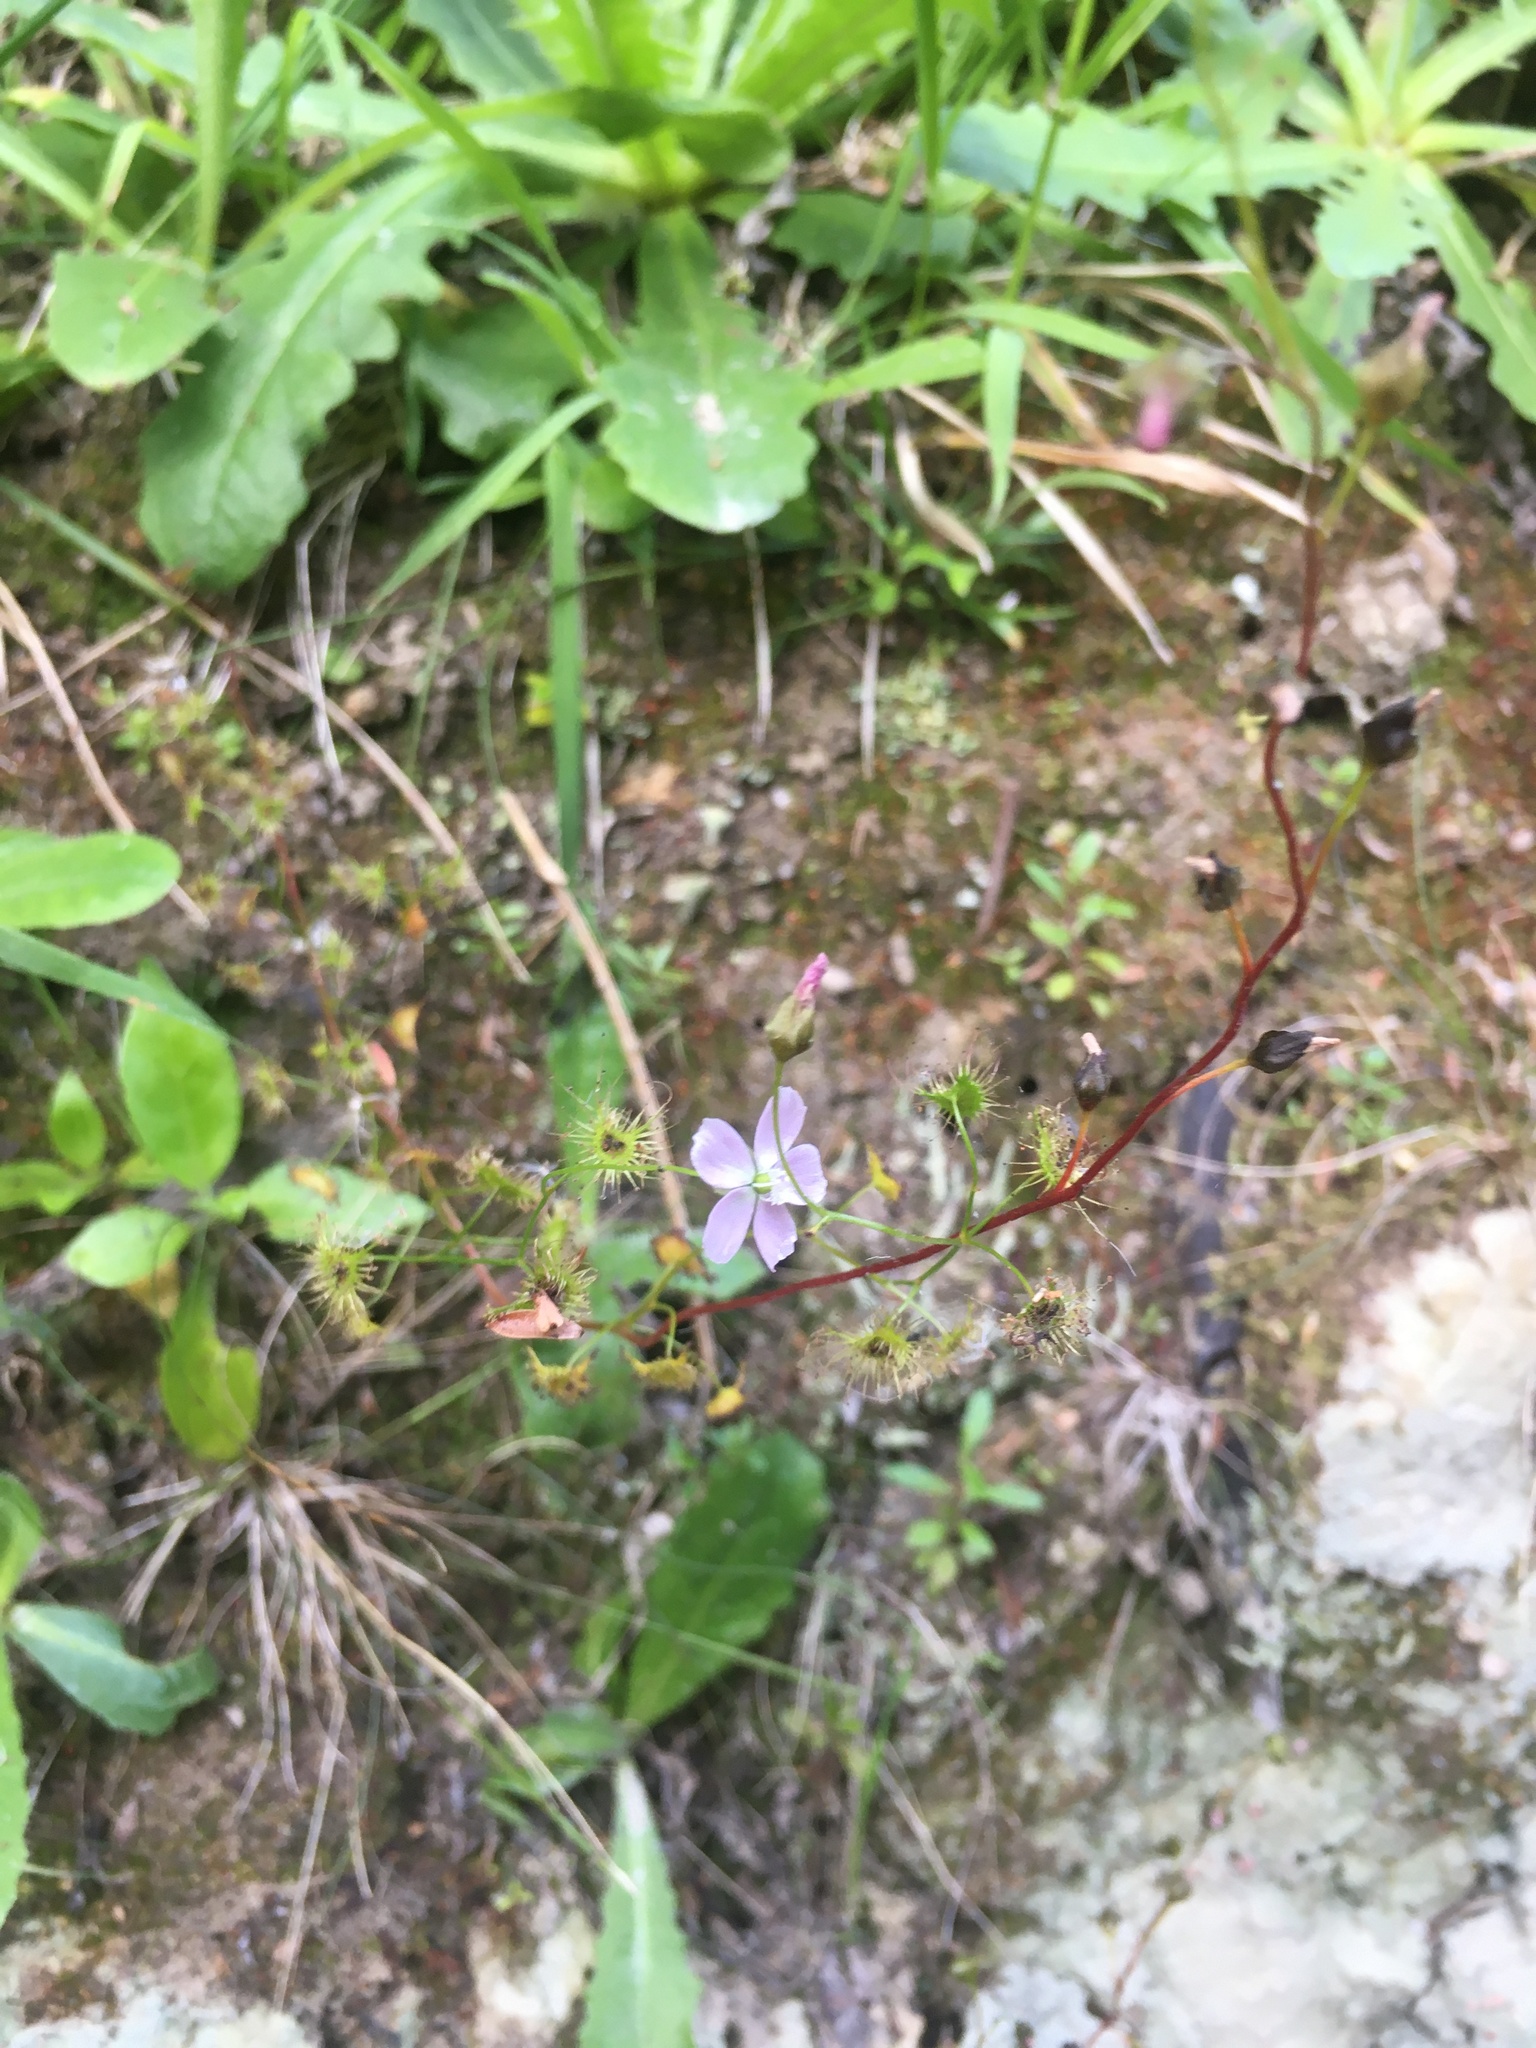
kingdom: Plantae
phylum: Tracheophyta
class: Magnoliopsida
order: Caryophyllales
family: Droseraceae
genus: Drosera
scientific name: Drosera peltata
